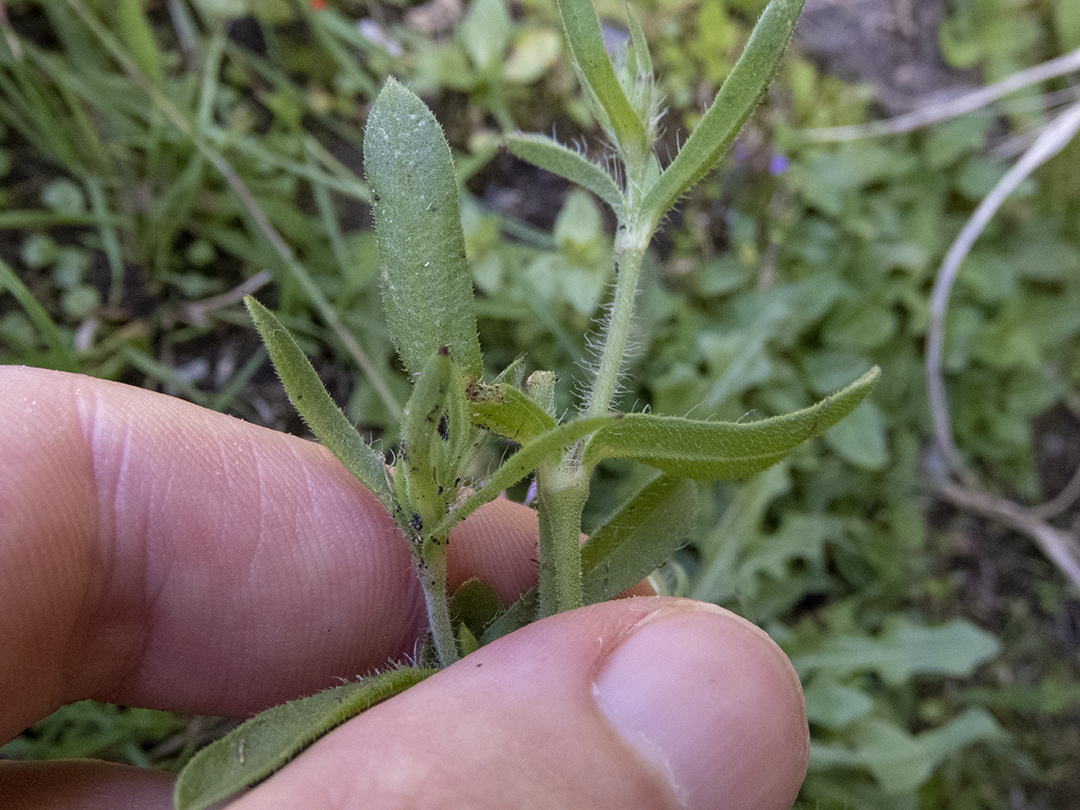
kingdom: Plantae
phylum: Tracheophyta
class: Magnoliopsida
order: Caryophyllales
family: Caryophyllaceae
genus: Silene
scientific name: Silene gallica
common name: Small-flowered catchfly
